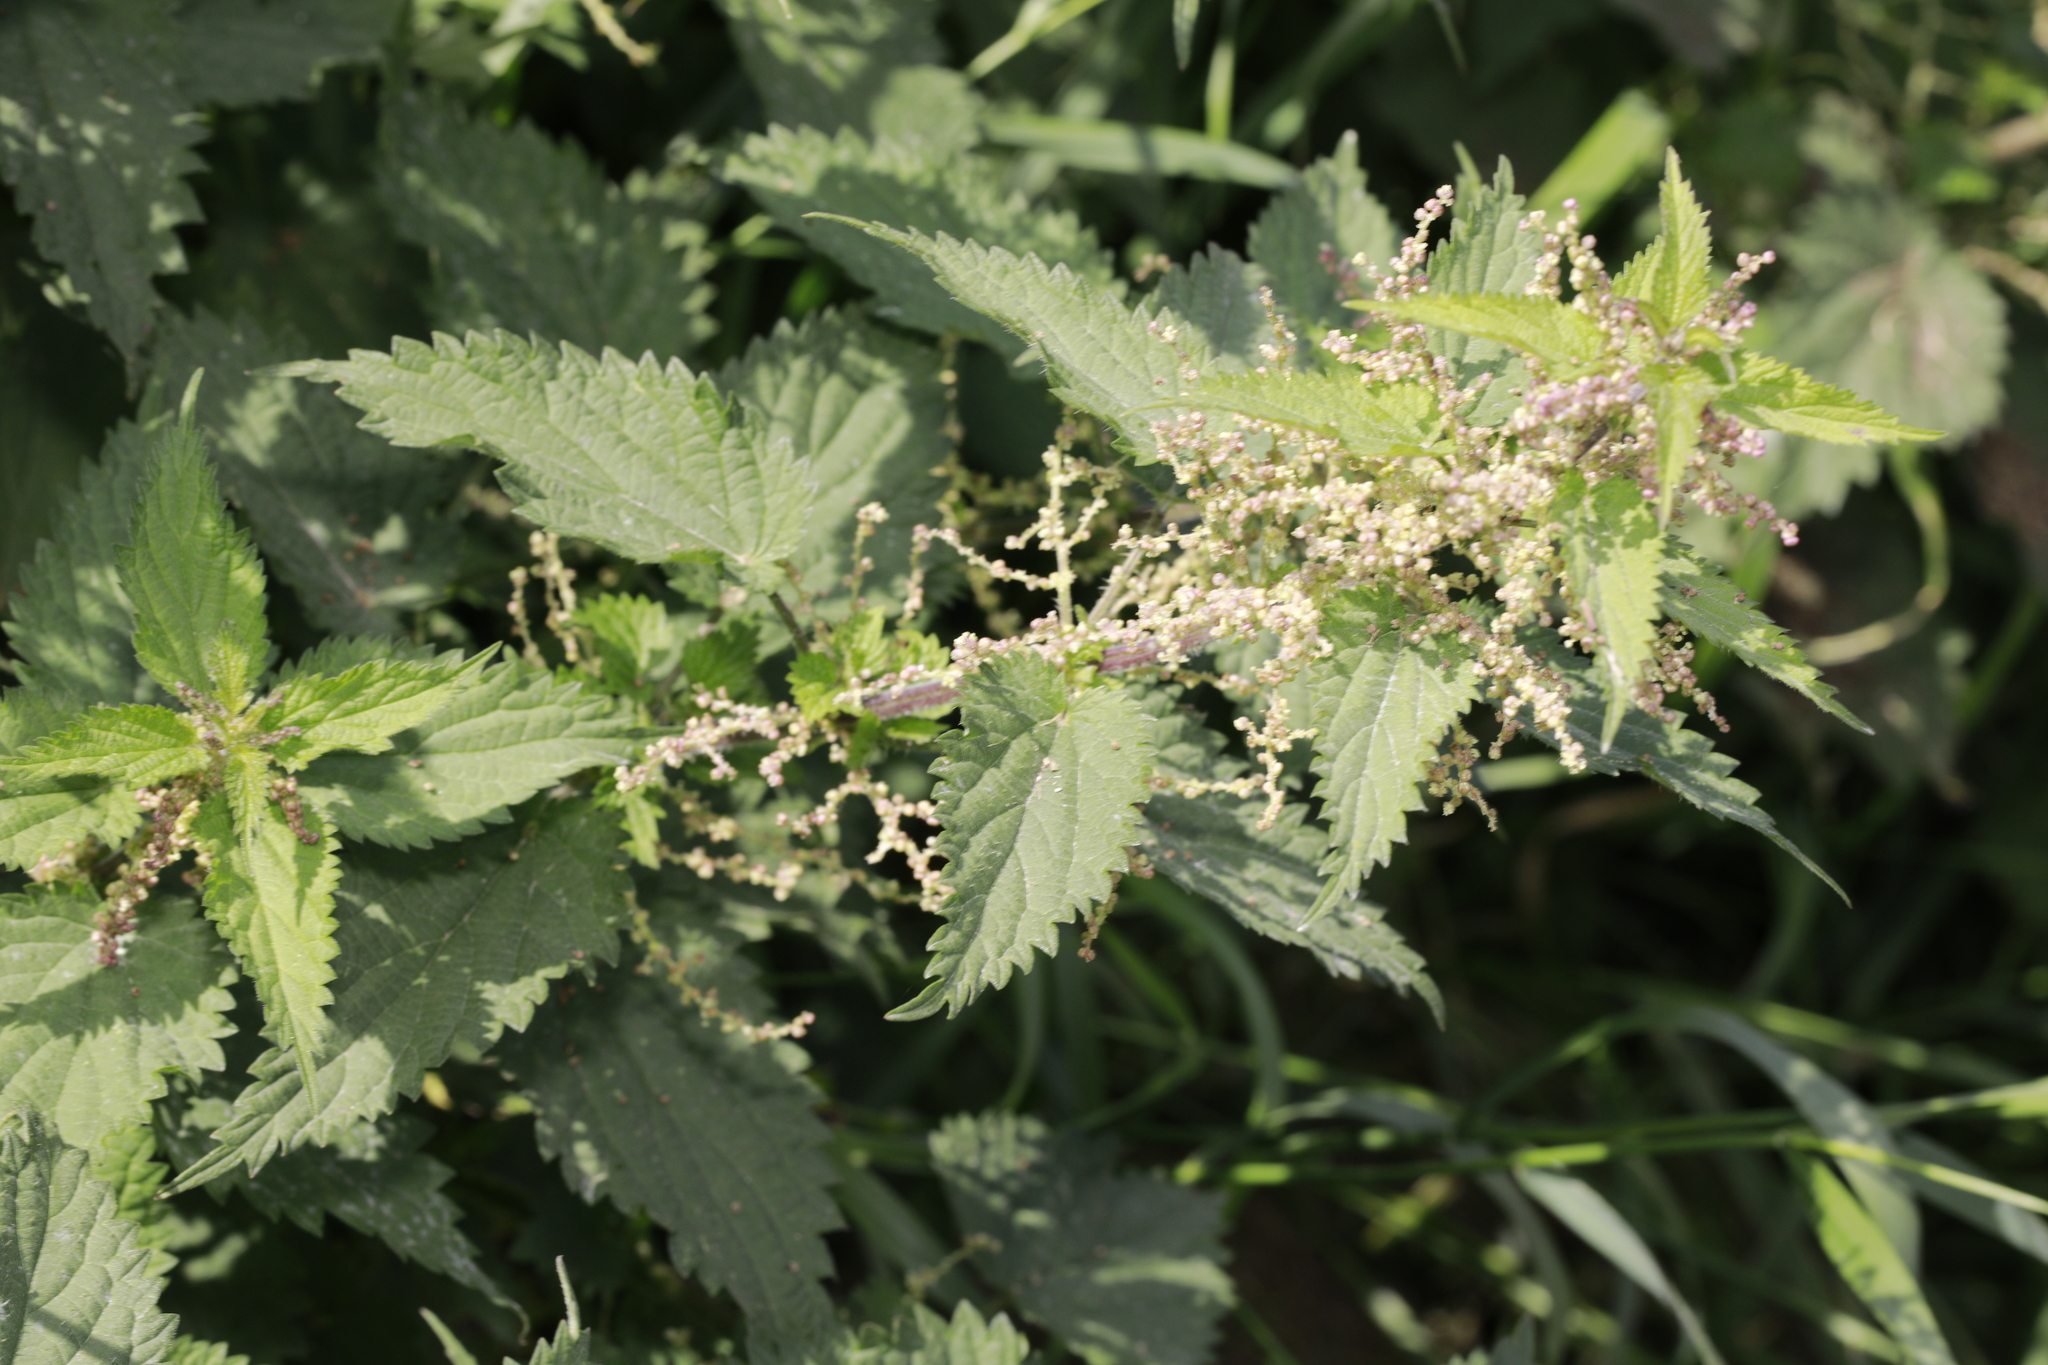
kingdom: Plantae
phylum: Tracheophyta
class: Magnoliopsida
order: Rosales
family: Urticaceae
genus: Urtica
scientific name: Urtica dioica
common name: Common nettle
